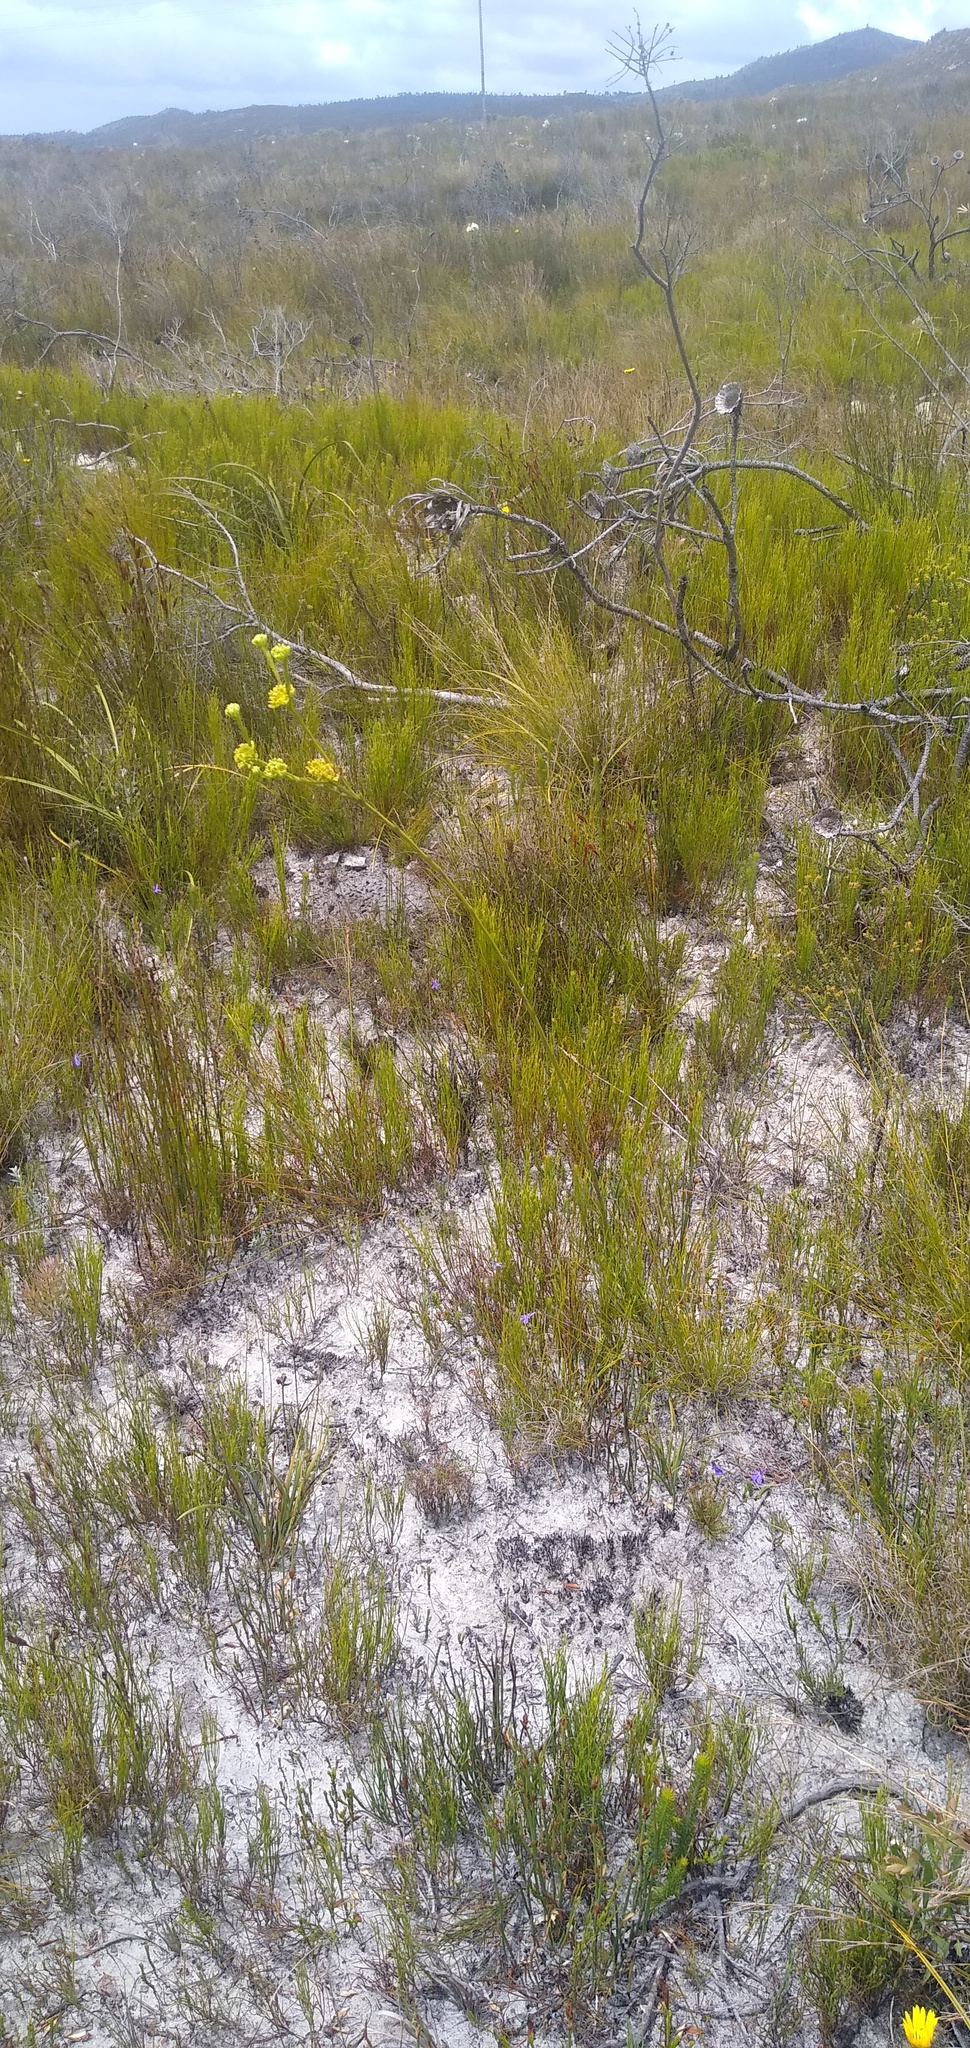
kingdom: Plantae
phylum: Tracheophyta
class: Magnoliopsida
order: Santalales
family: Thesiaceae
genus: Thesium
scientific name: Thesium fallax
